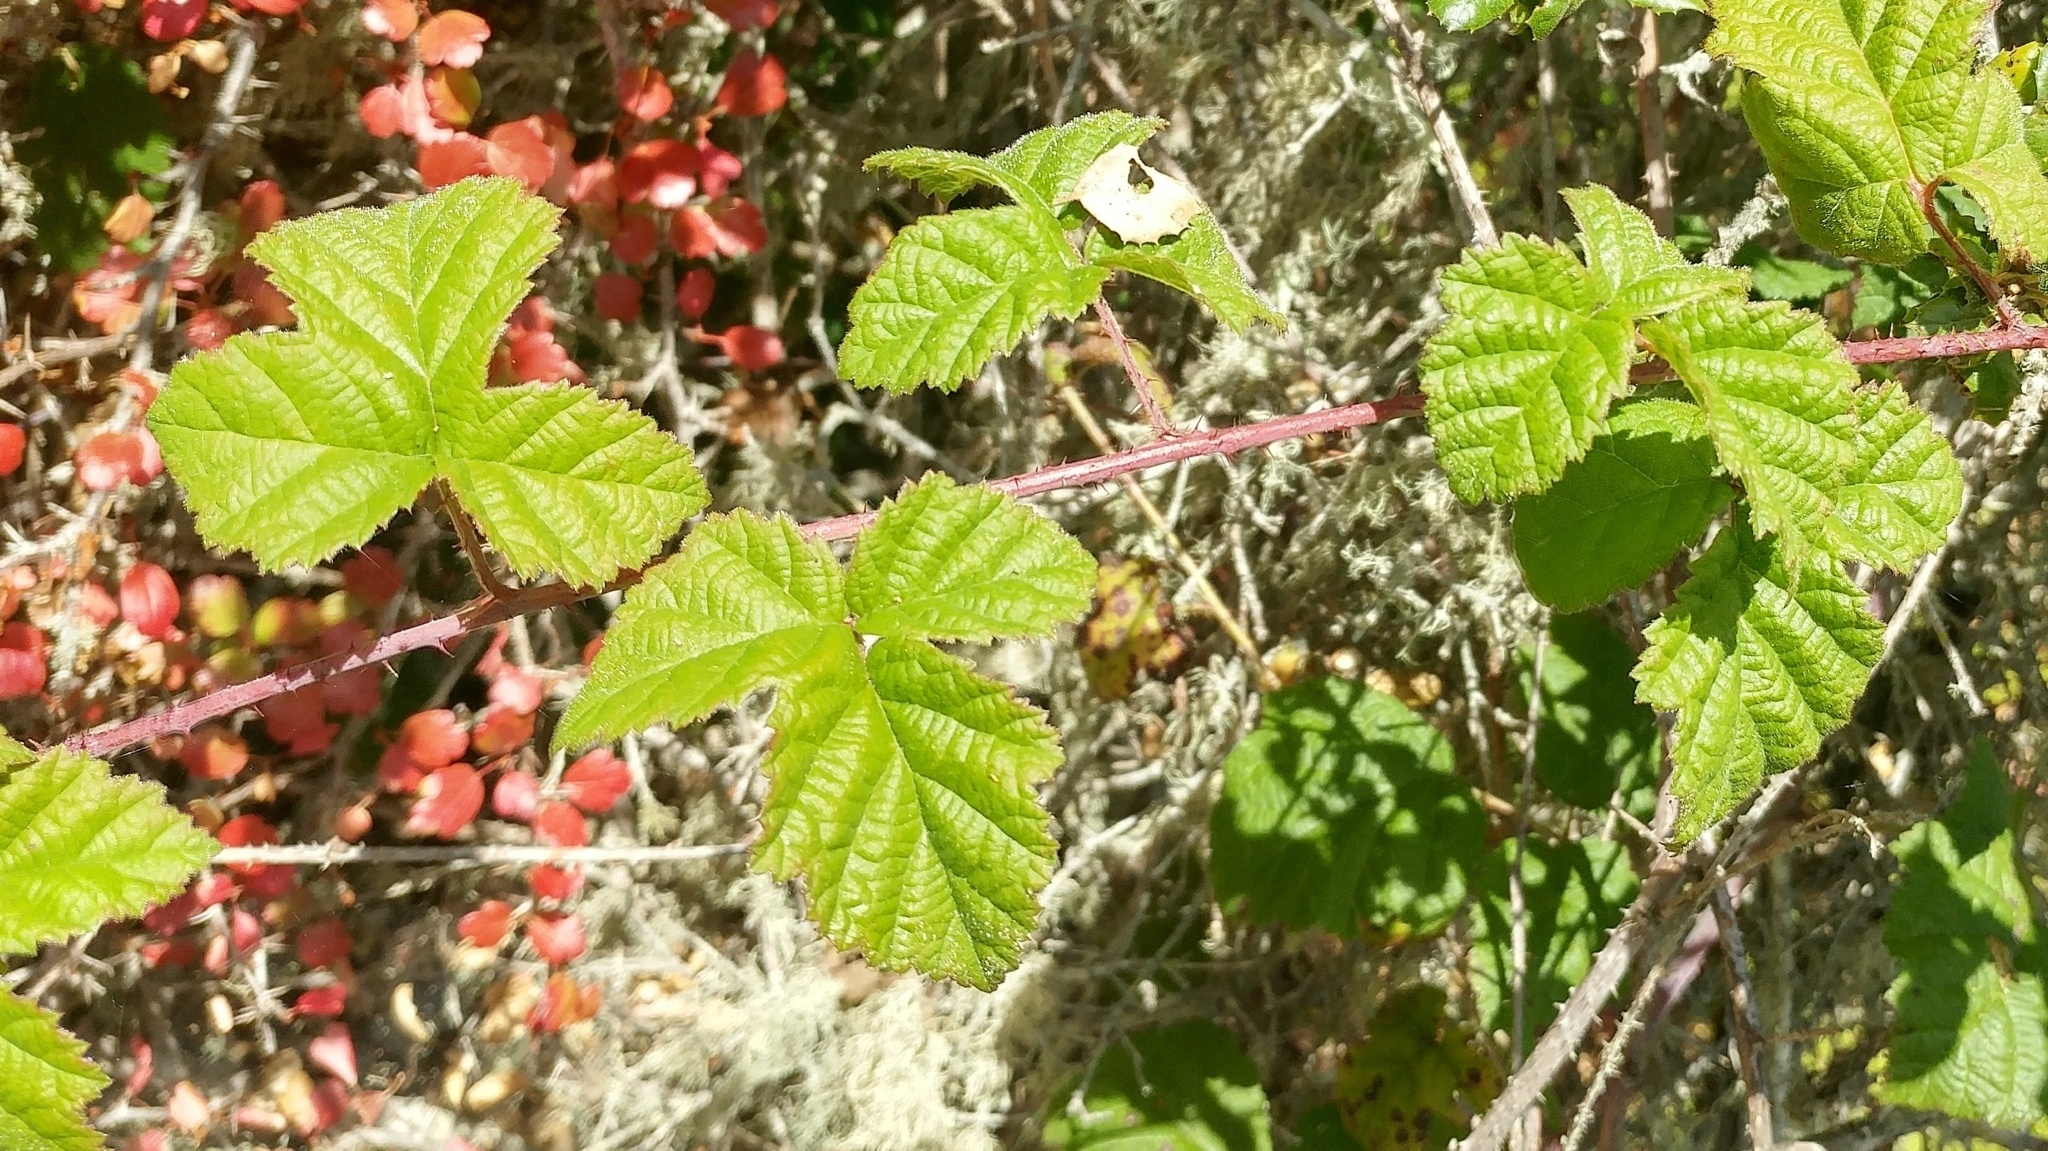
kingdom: Plantae
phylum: Tracheophyta
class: Magnoliopsida
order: Rosales
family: Rosaceae
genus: Rubus
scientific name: Rubus ursinus
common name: Pacific blackberry
